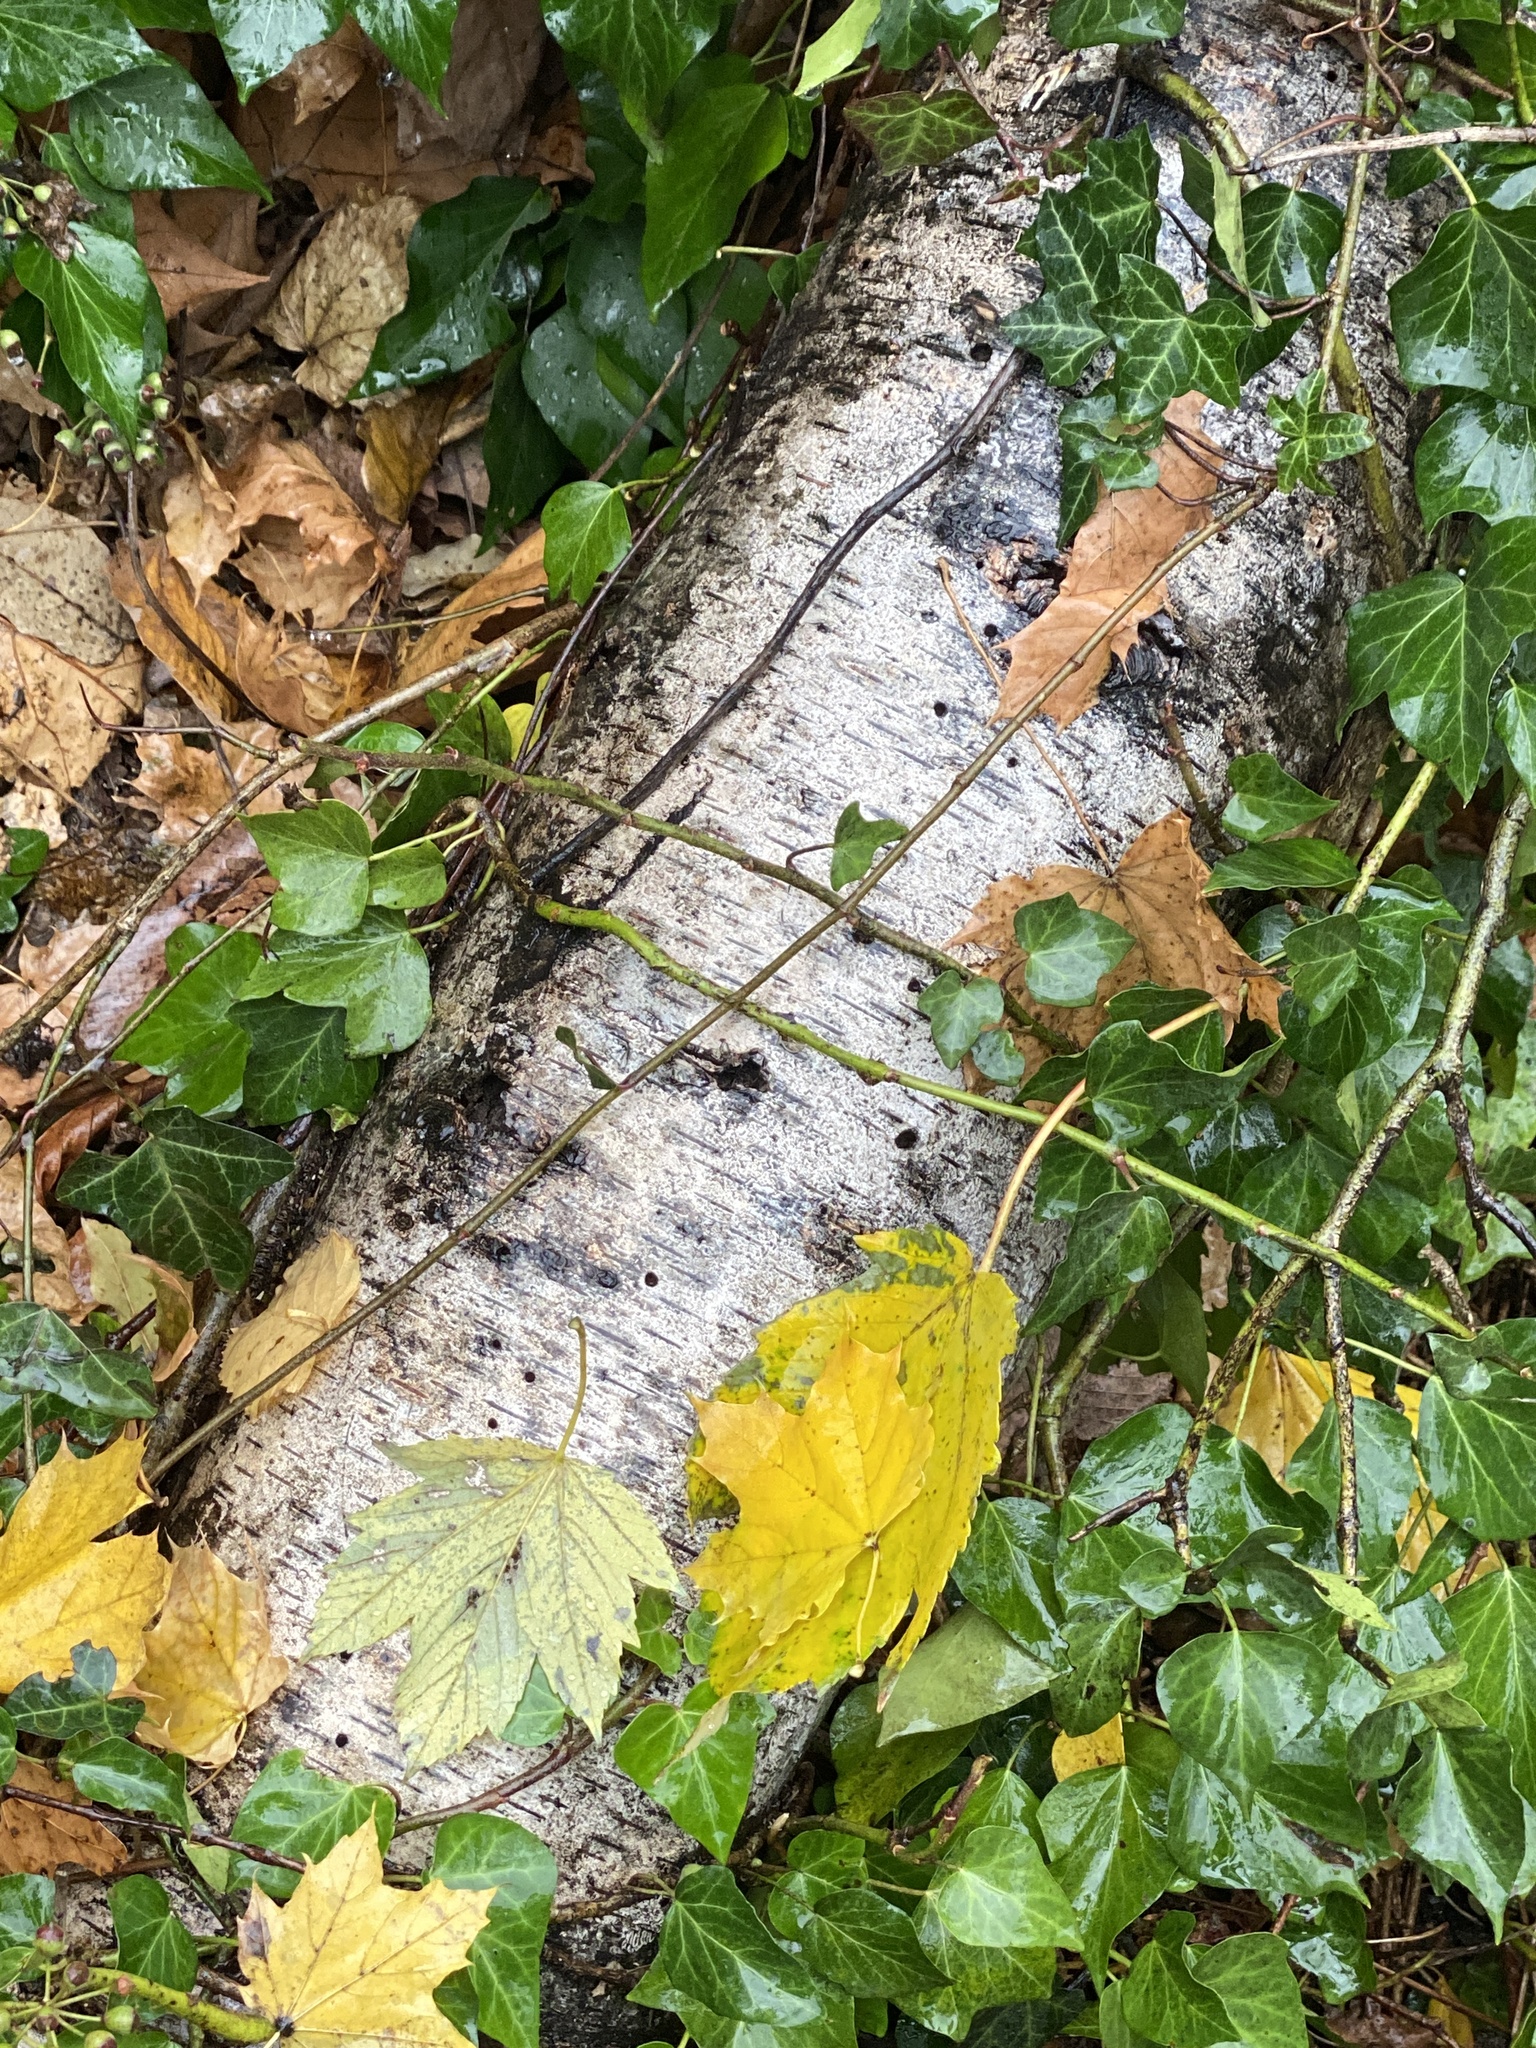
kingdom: Plantae
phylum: Tracheophyta
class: Magnoliopsida
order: Fagales
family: Betulaceae
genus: Betula
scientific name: Betula papyrifera
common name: Paper birch
